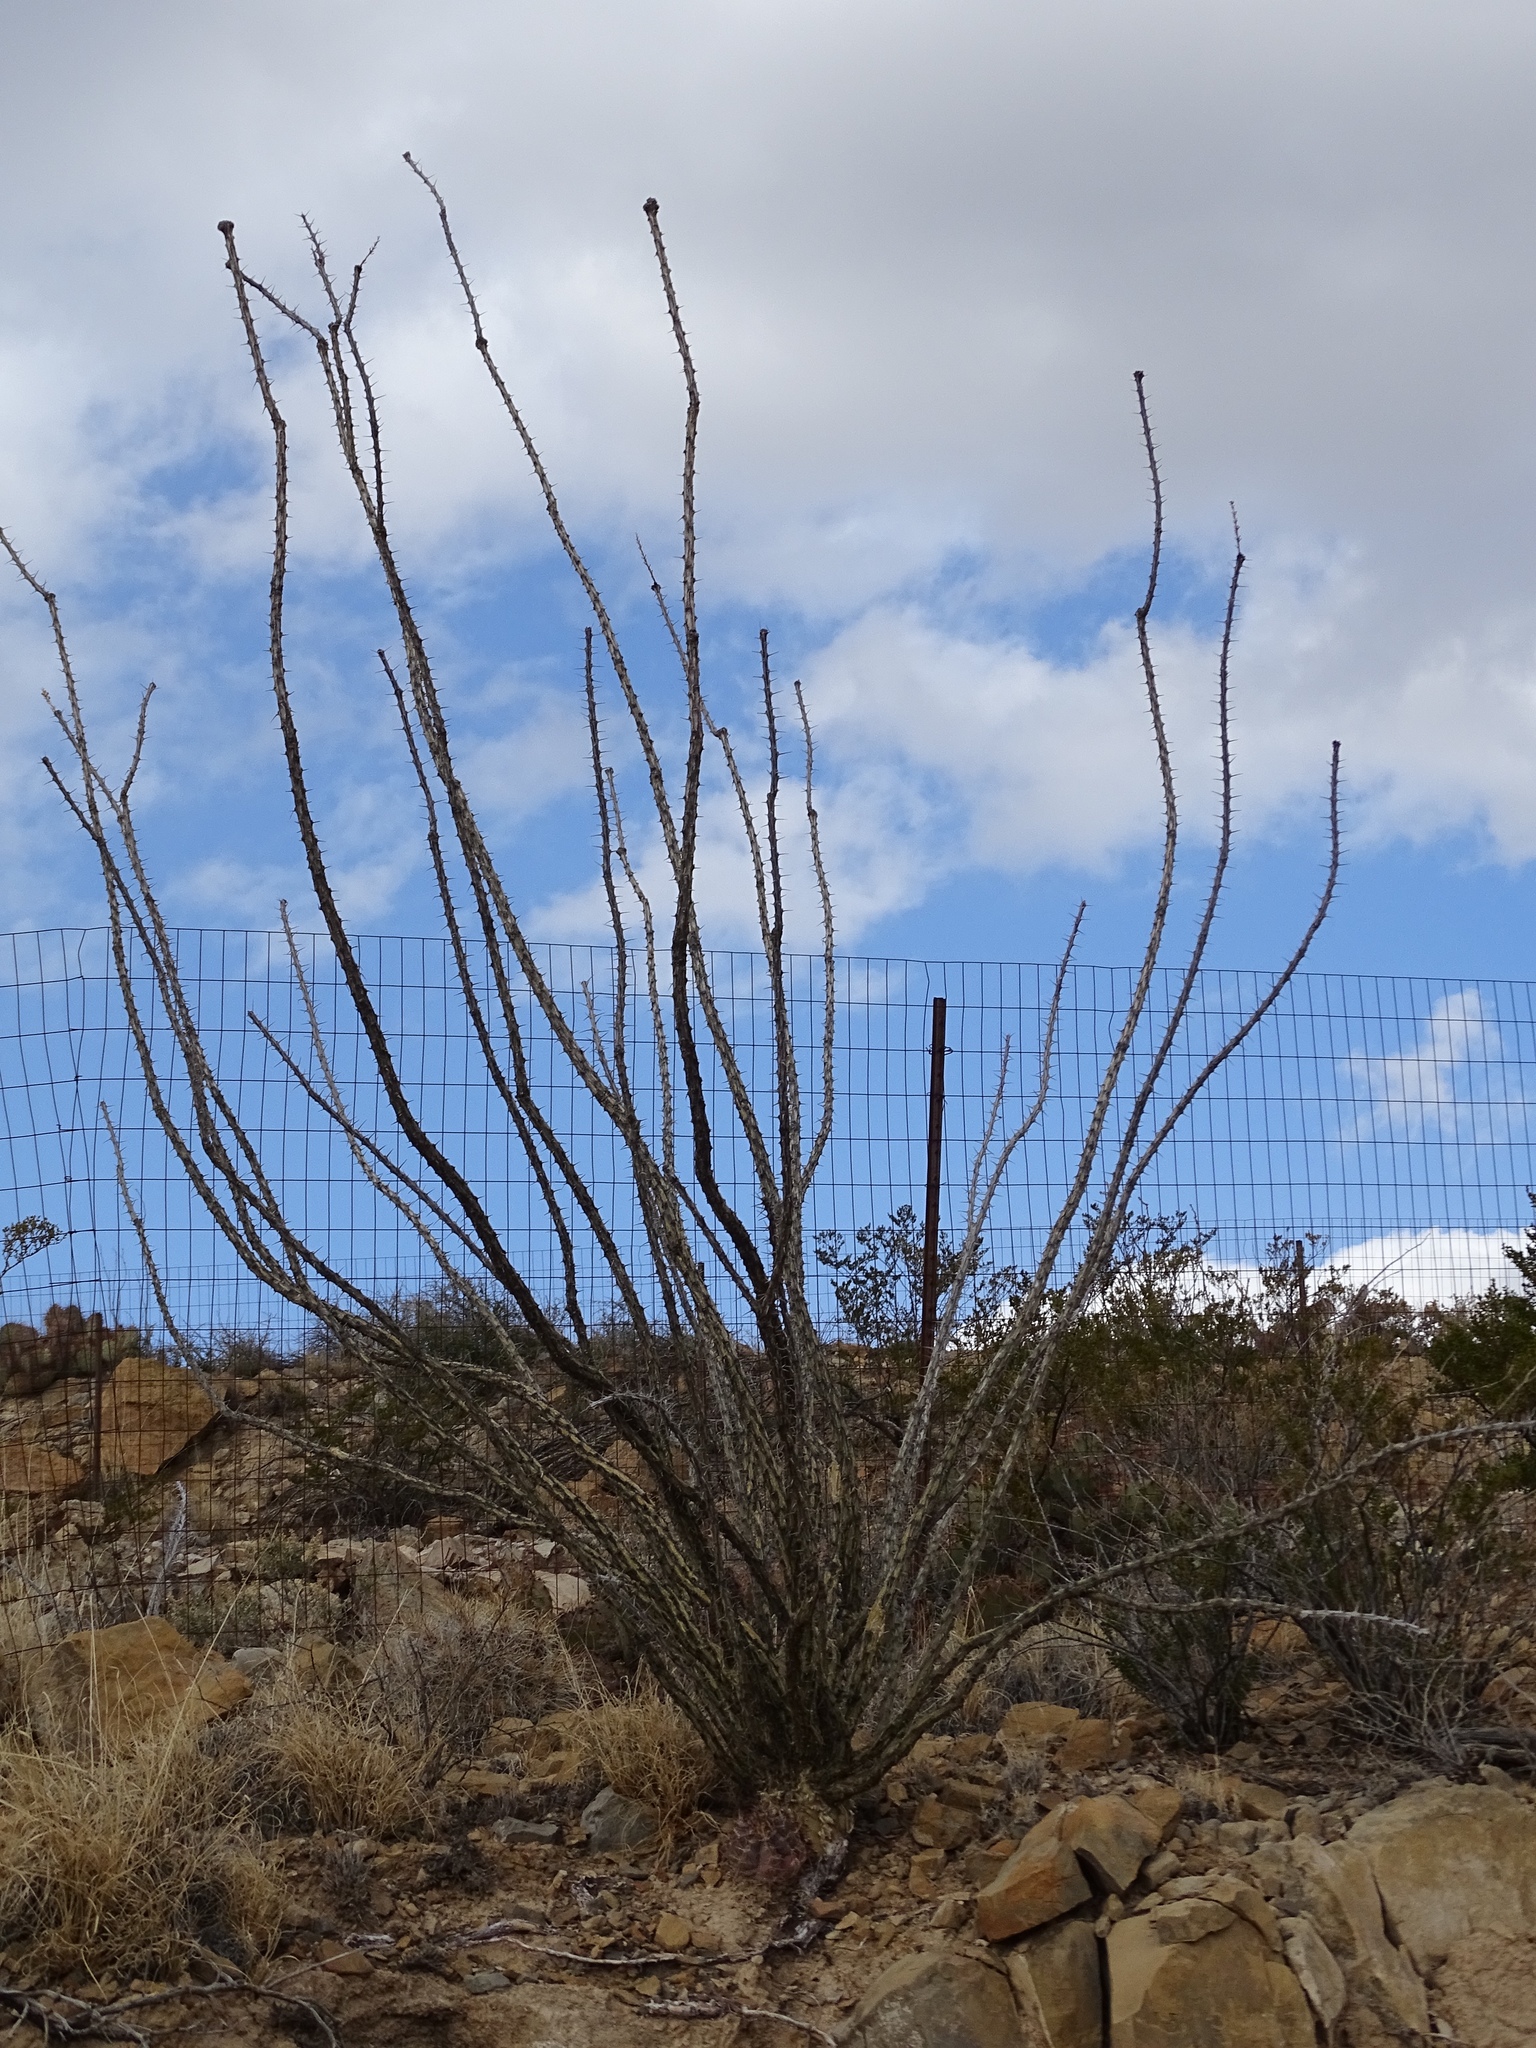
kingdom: Plantae
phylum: Tracheophyta
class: Magnoliopsida
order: Ericales
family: Fouquieriaceae
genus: Fouquieria
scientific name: Fouquieria splendens
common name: Vine-cactus
